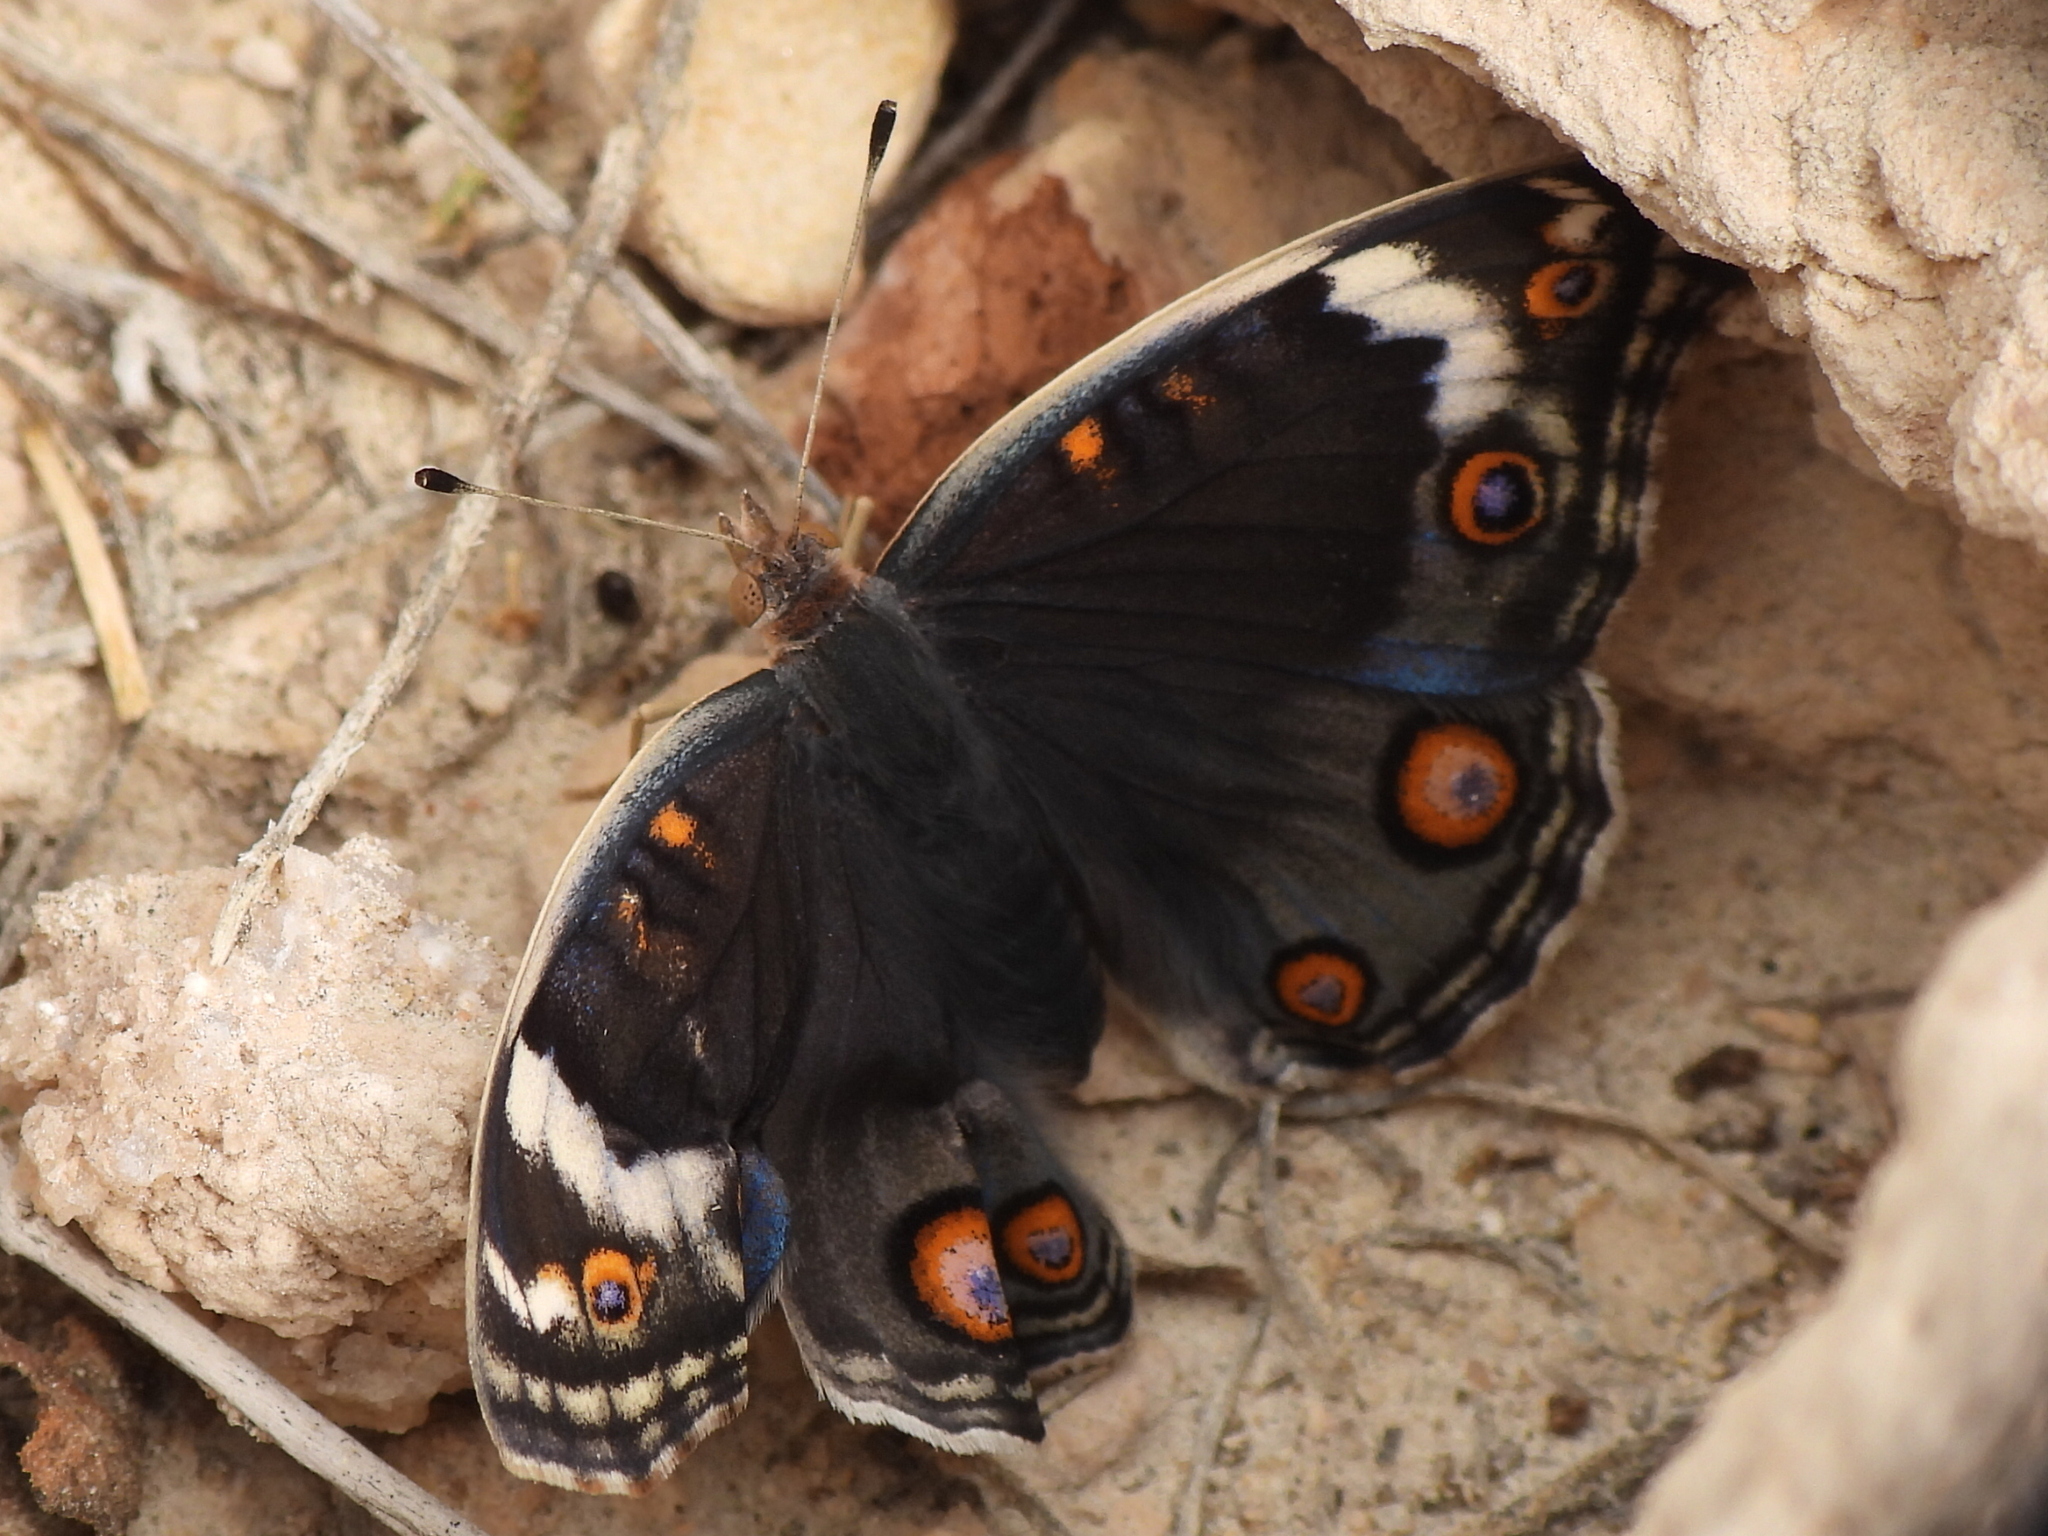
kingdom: Animalia
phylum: Arthropoda
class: Insecta
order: Lepidoptera
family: Nymphalidae
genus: Junonia
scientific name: Junonia orithya
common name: Blue pansy
